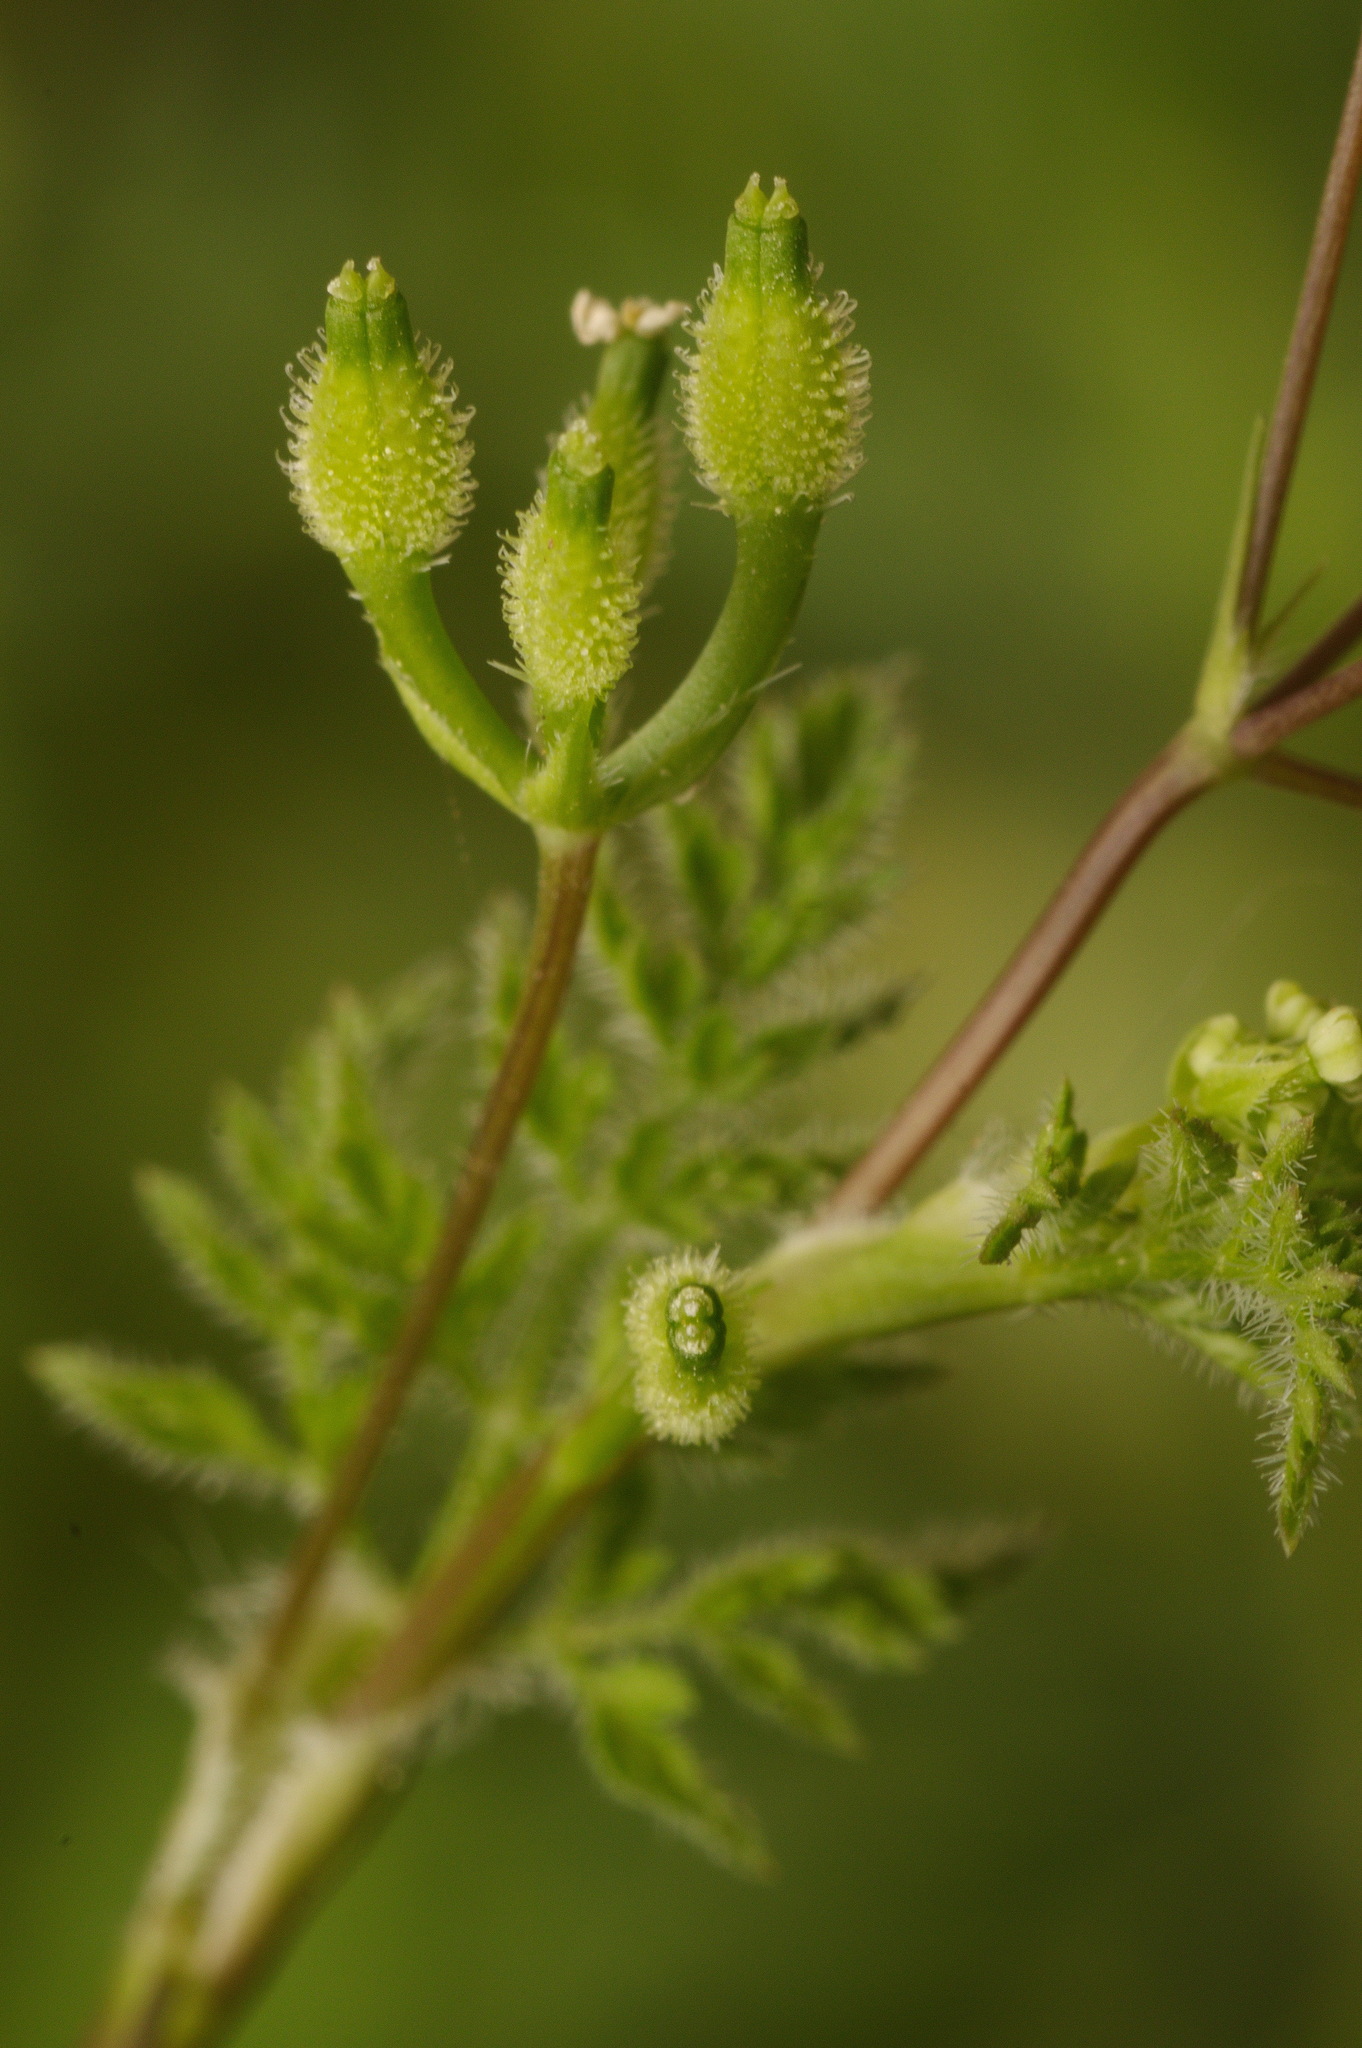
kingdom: Plantae
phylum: Tracheophyta
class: Magnoliopsida
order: Apiales
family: Apiaceae
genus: Anthriscus
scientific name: Anthriscus caucalis
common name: Bur chervil
